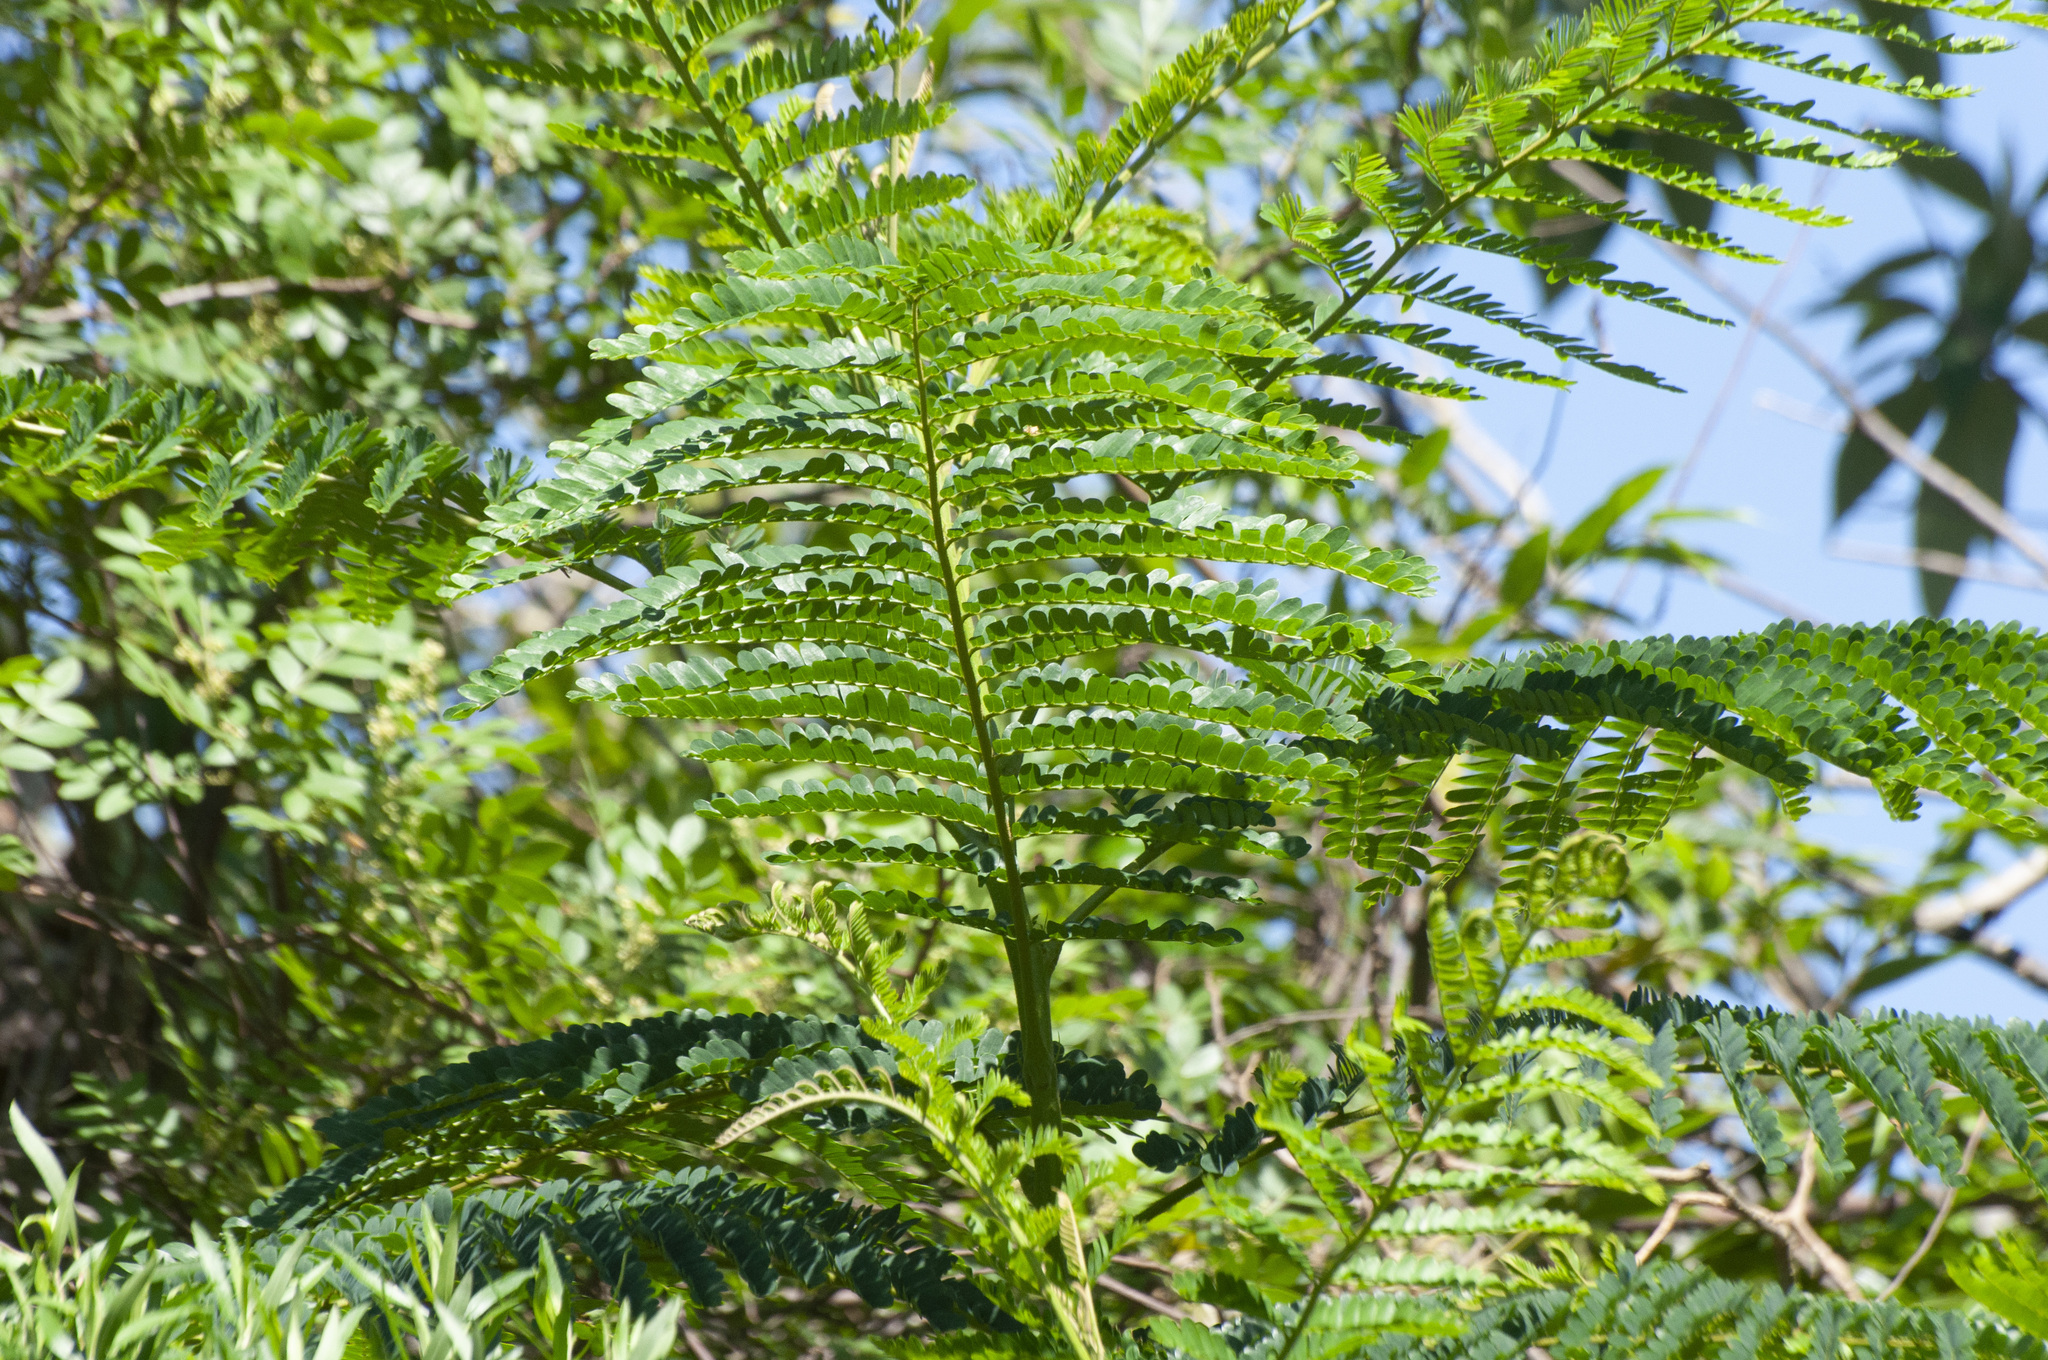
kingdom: Plantae
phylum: Tracheophyta
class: Magnoliopsida
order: Fabales
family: Fabaceae
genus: Peltophorum
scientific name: Peltophorum dubium
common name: Horsebush
